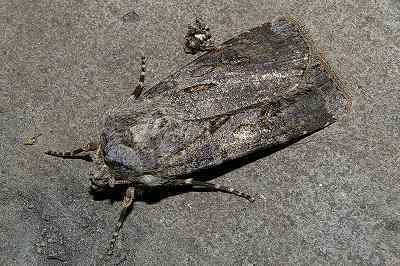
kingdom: Animalia
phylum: Arthropoda
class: Insecta
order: Lepidoptera
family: Noctuidae
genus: Agrotis
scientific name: Agrotis segetum
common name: Turnip moth
